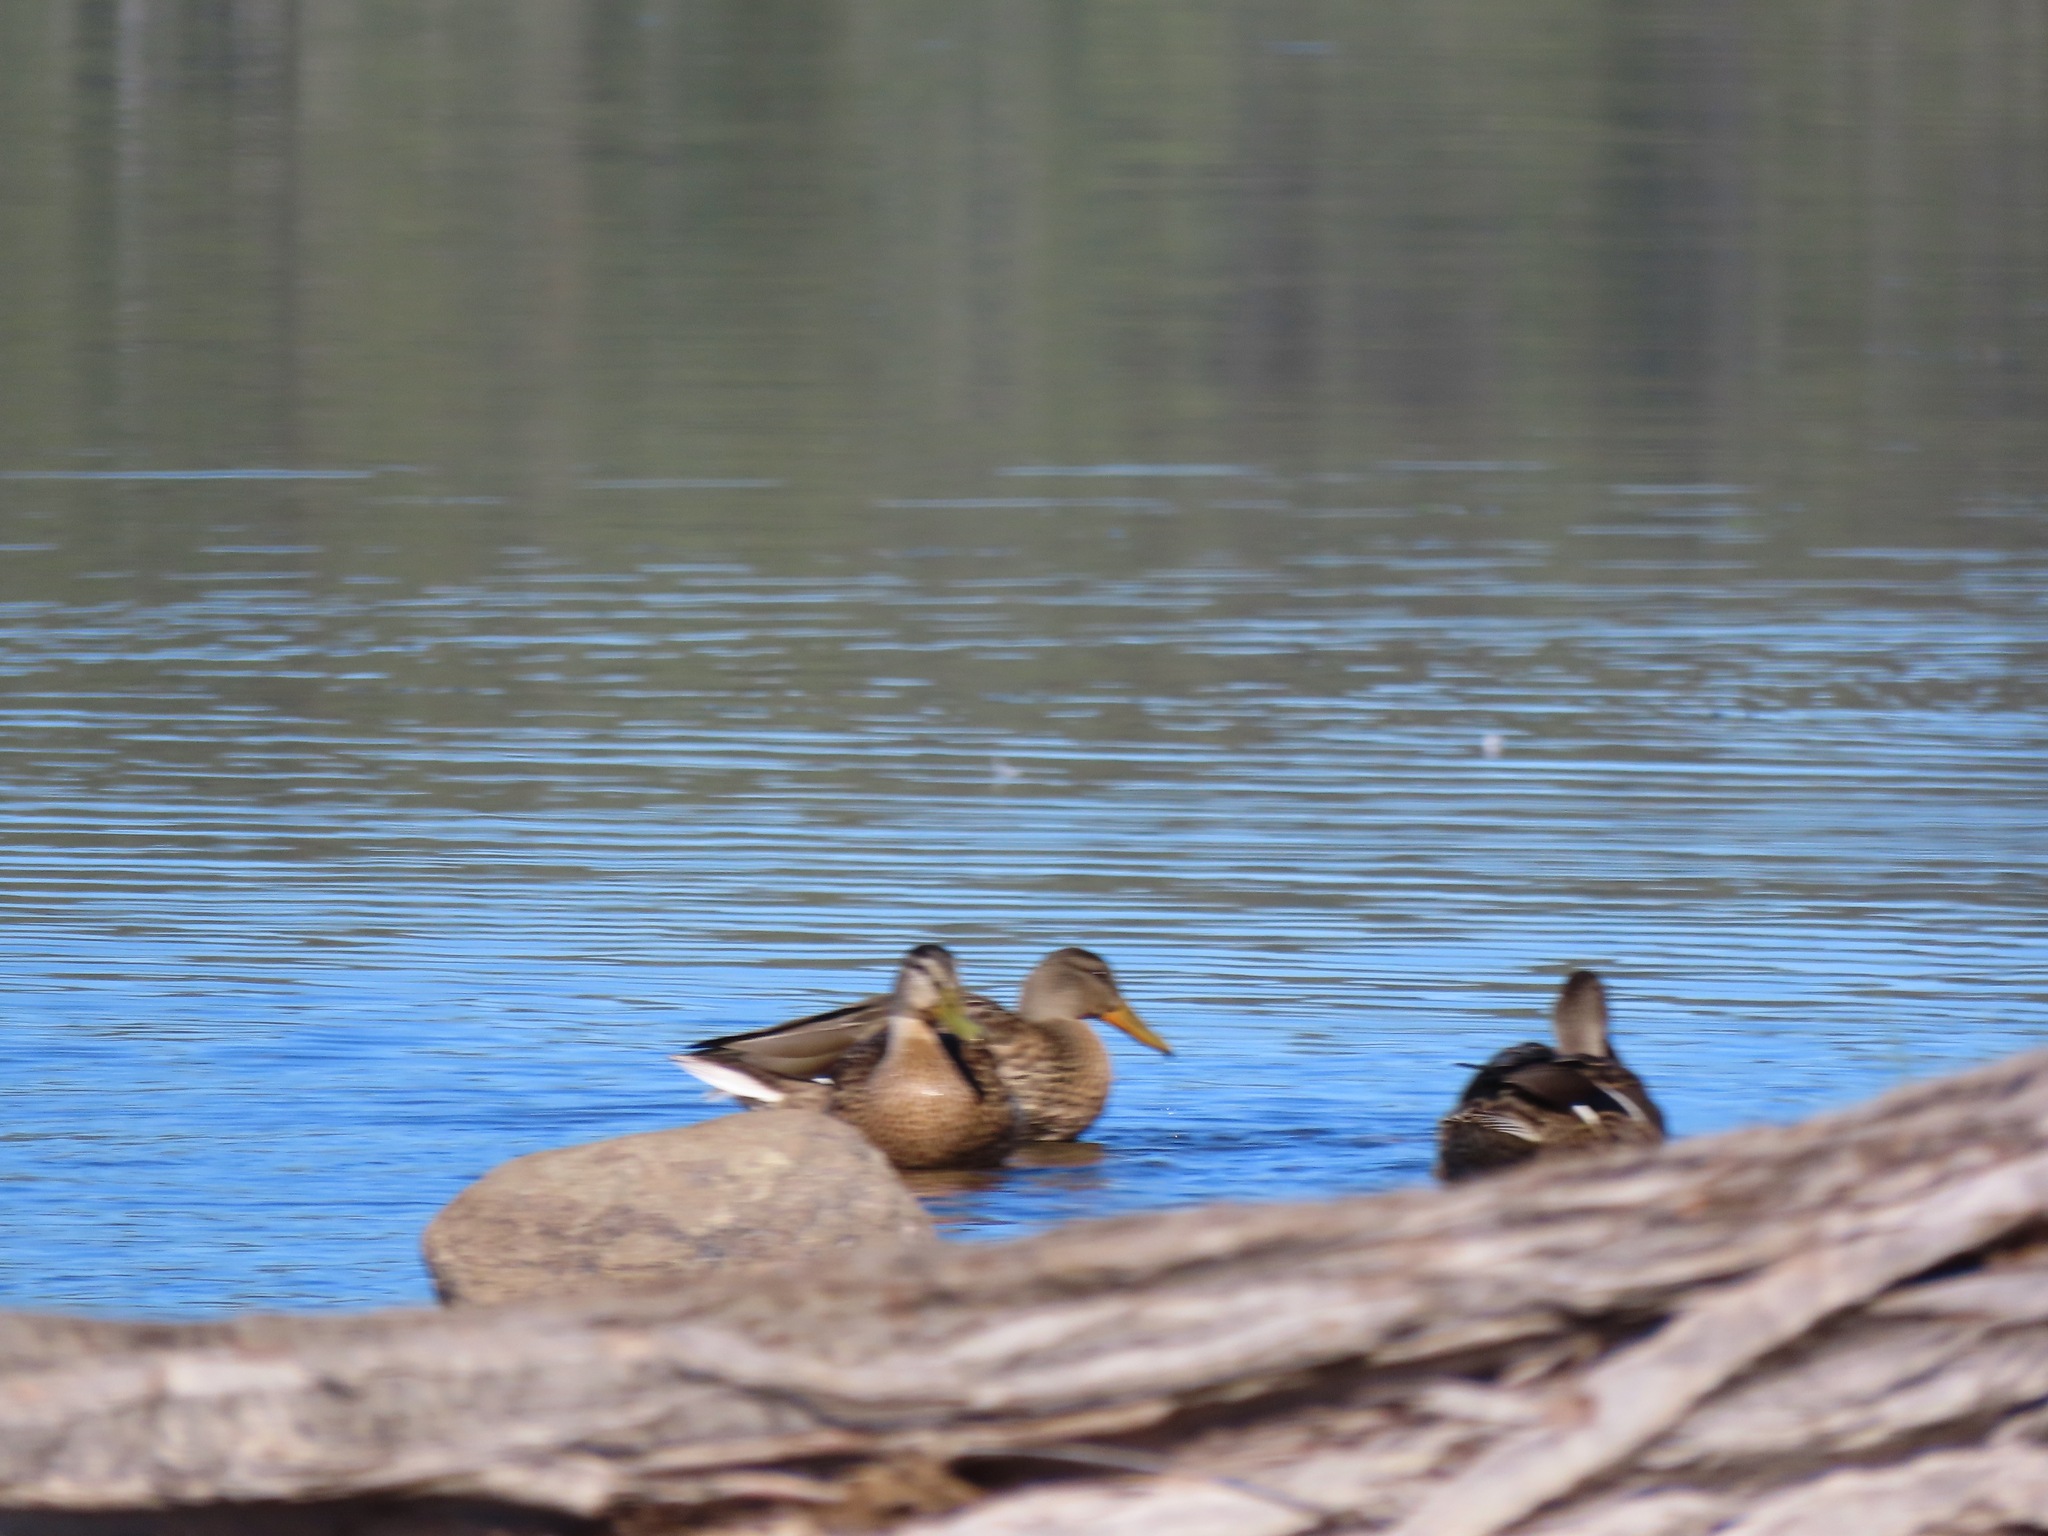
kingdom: Animalia
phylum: Chordata
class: Aves
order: Anseriformes
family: Anatidae
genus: Anas
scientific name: Anas platyrhynchos
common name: Mallard
